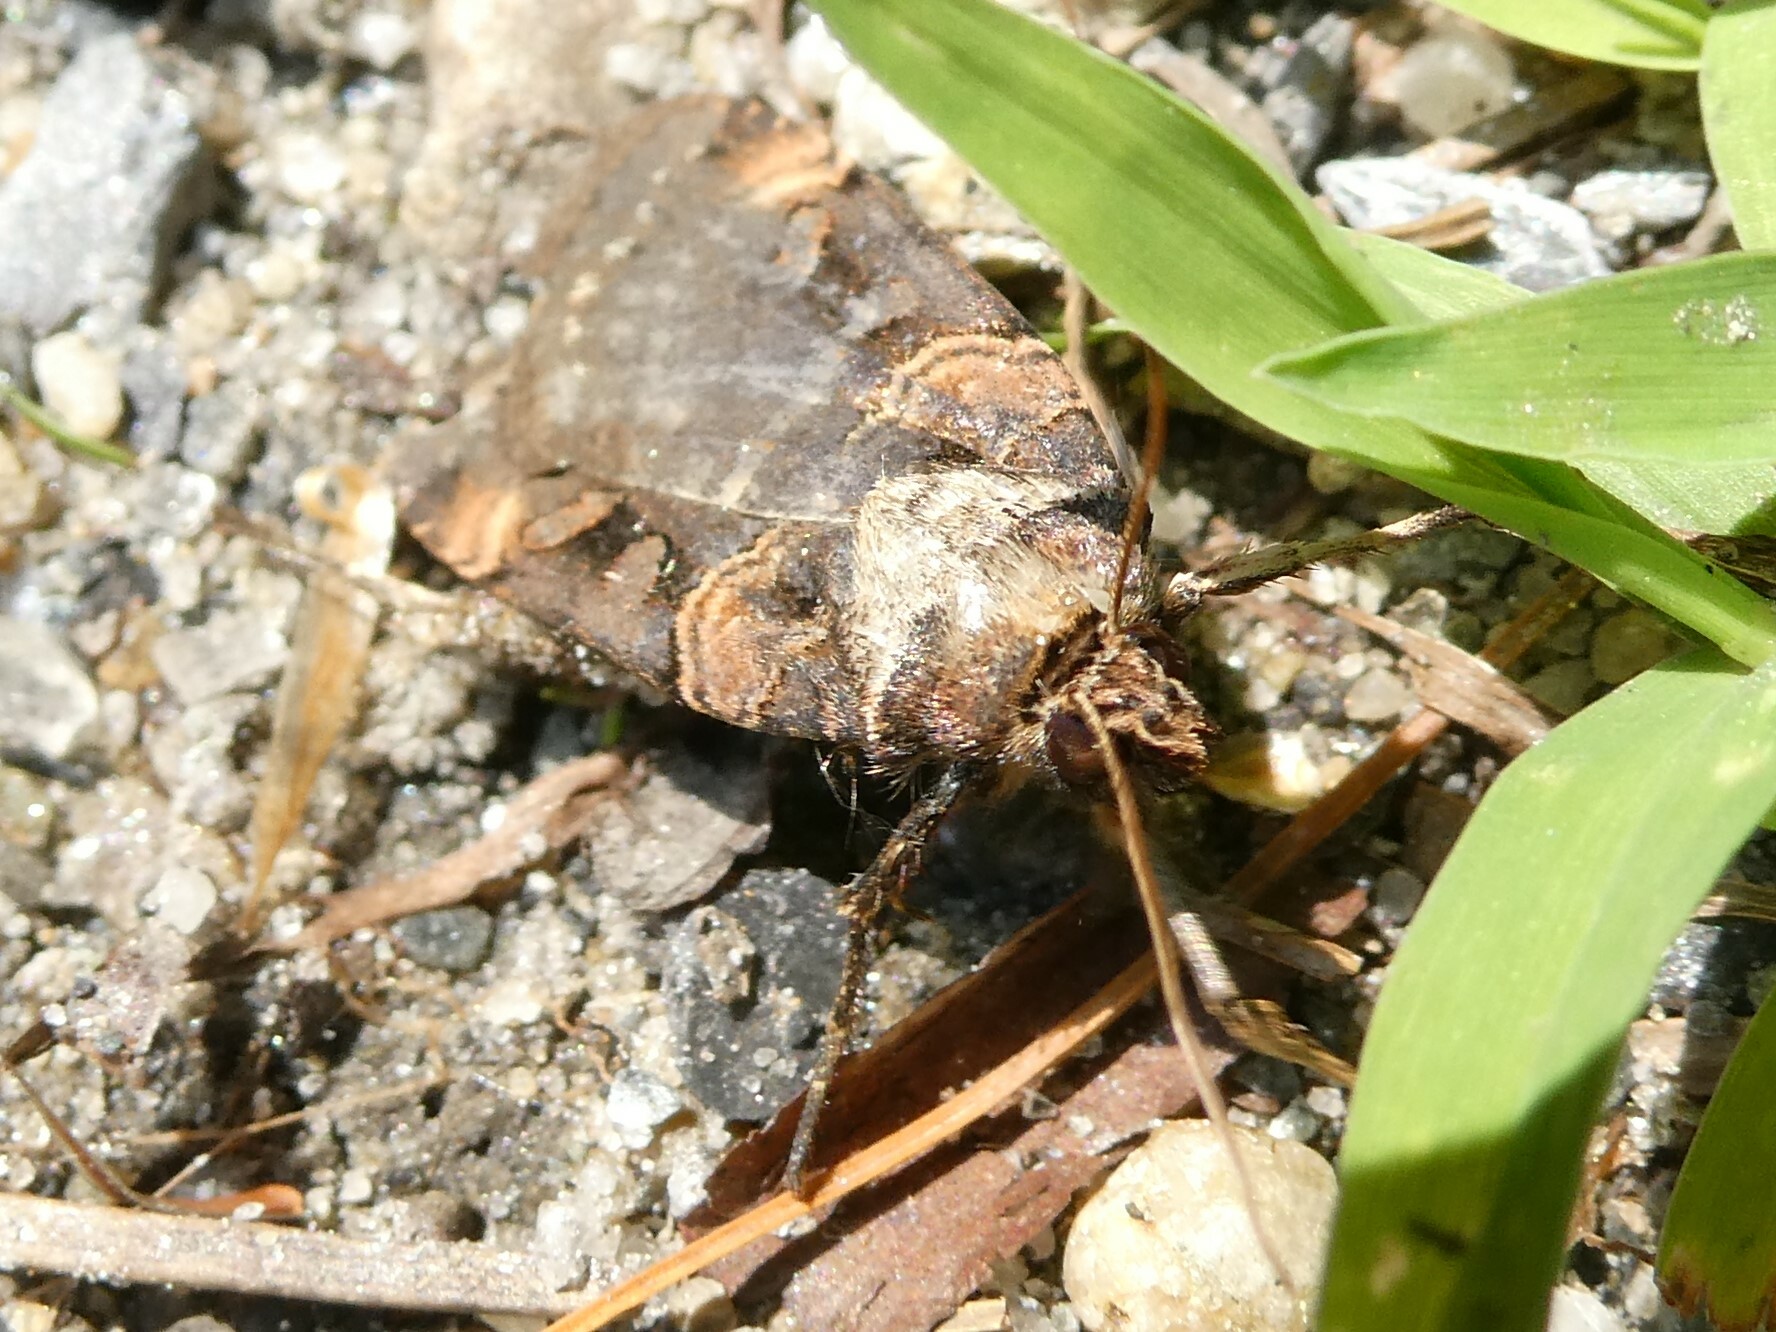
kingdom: Animalia
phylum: Arthropoda
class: Insecta
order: Lepidoptera
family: Noctuidae
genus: Pseudohermonassa
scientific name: Pseudohermonassa bicarnea
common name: Pink spotted dart
